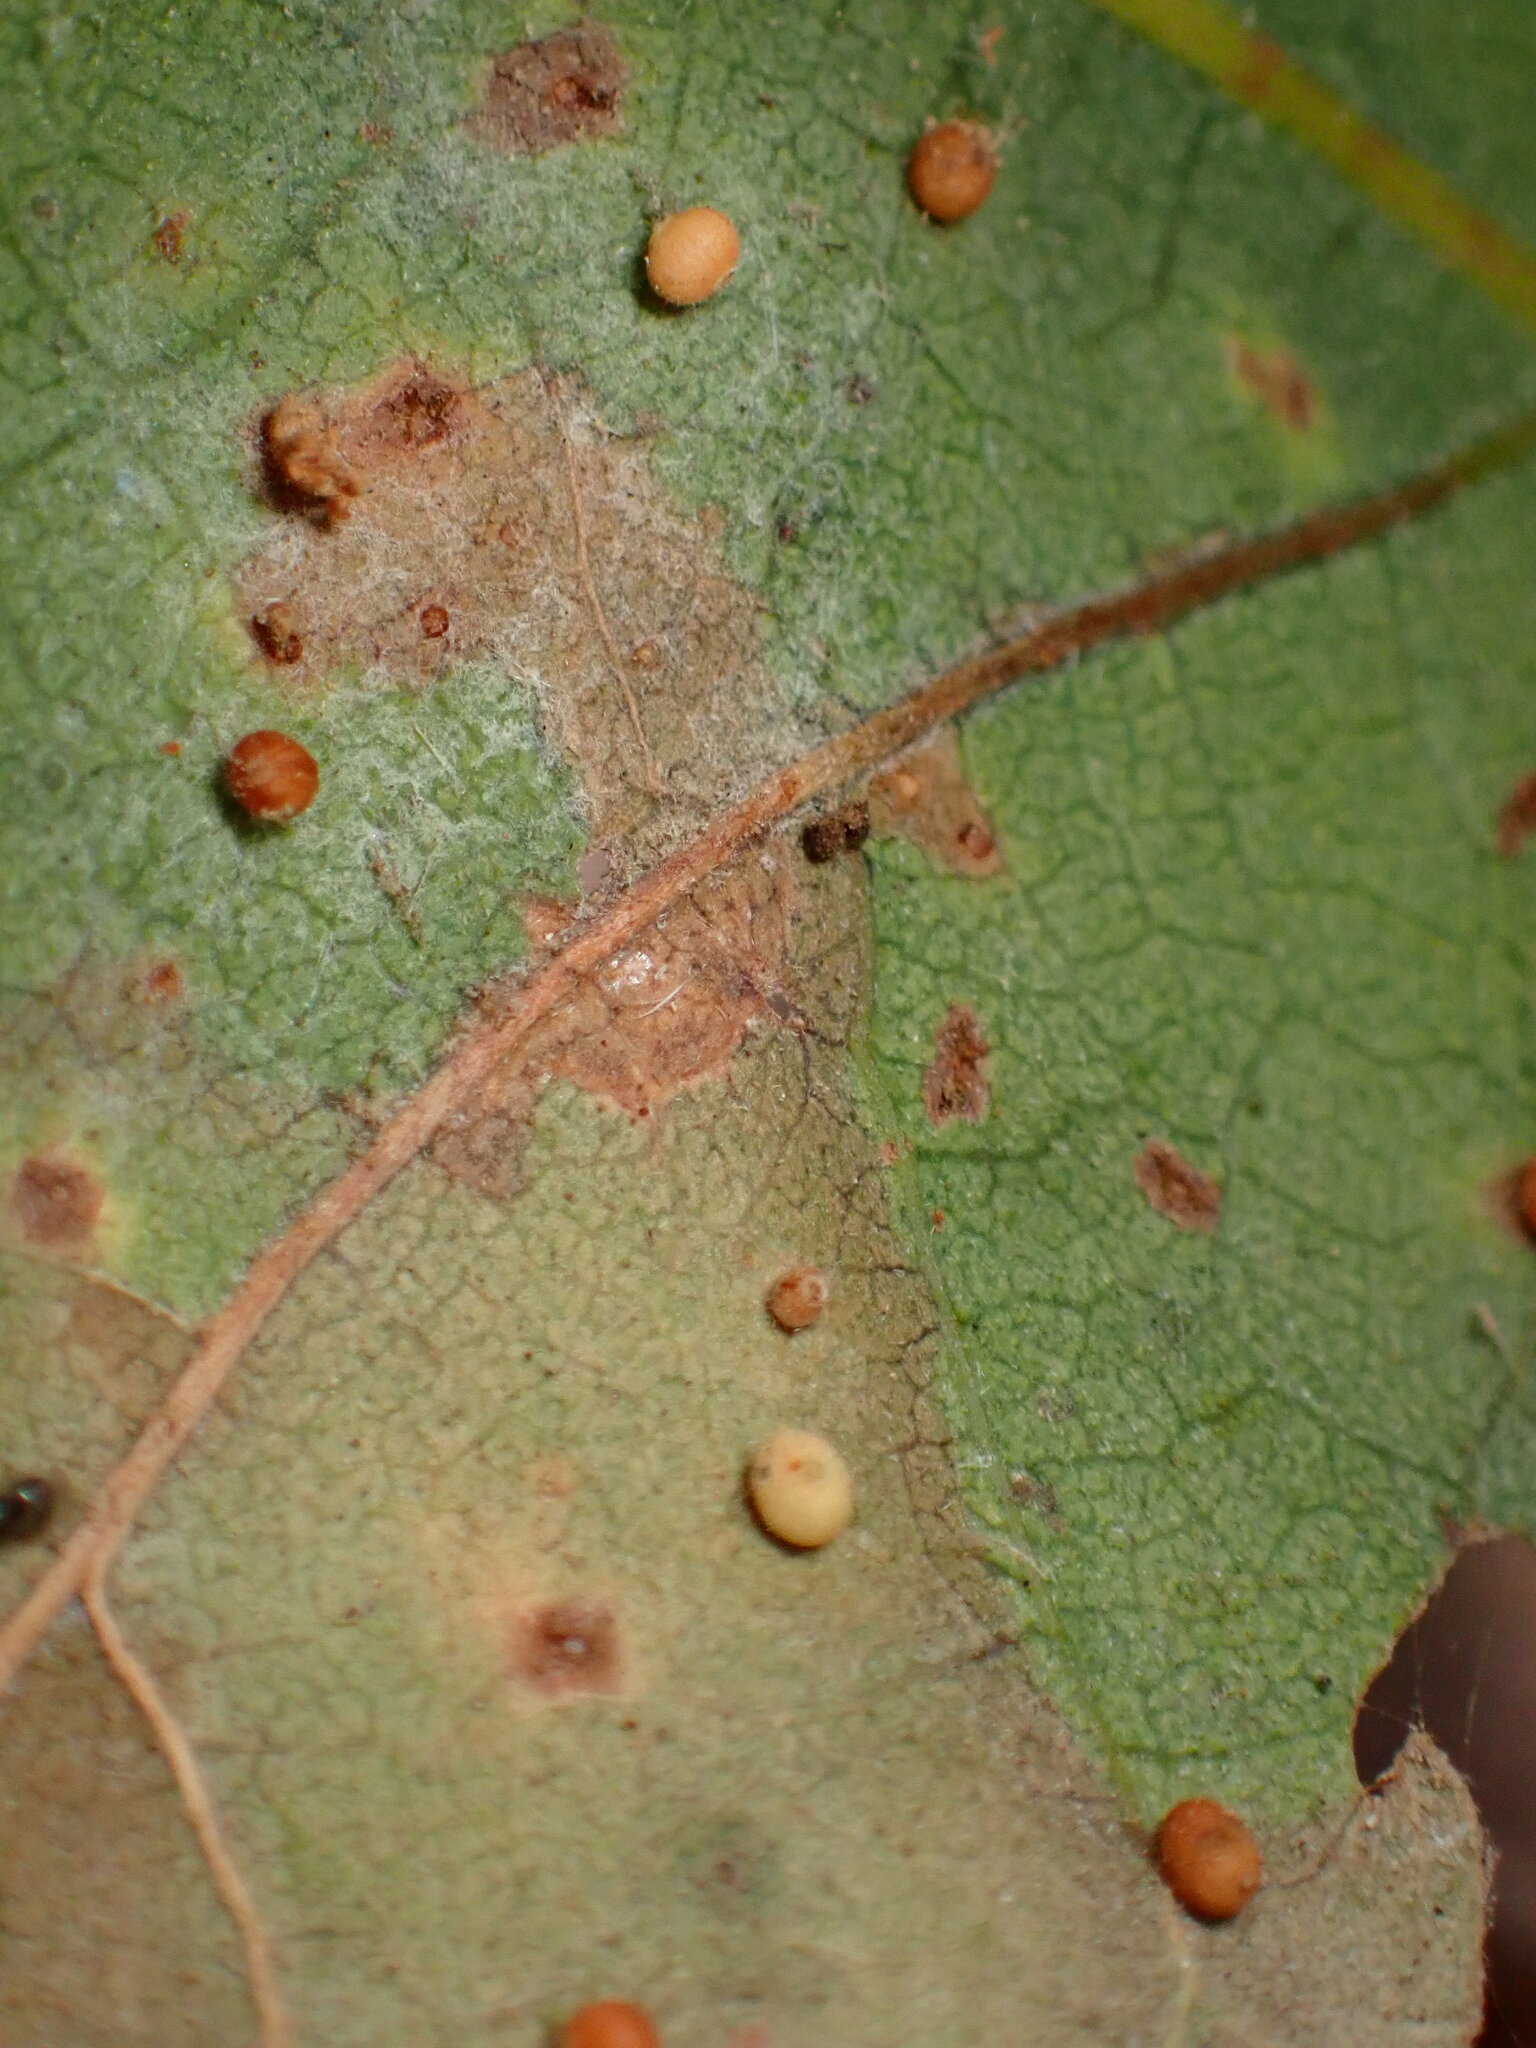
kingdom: Animalia
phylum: Arthropoda
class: Insecta
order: Hymenoptera
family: Cynipidae
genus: Neuroterus
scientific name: Neuroterus saltarius
